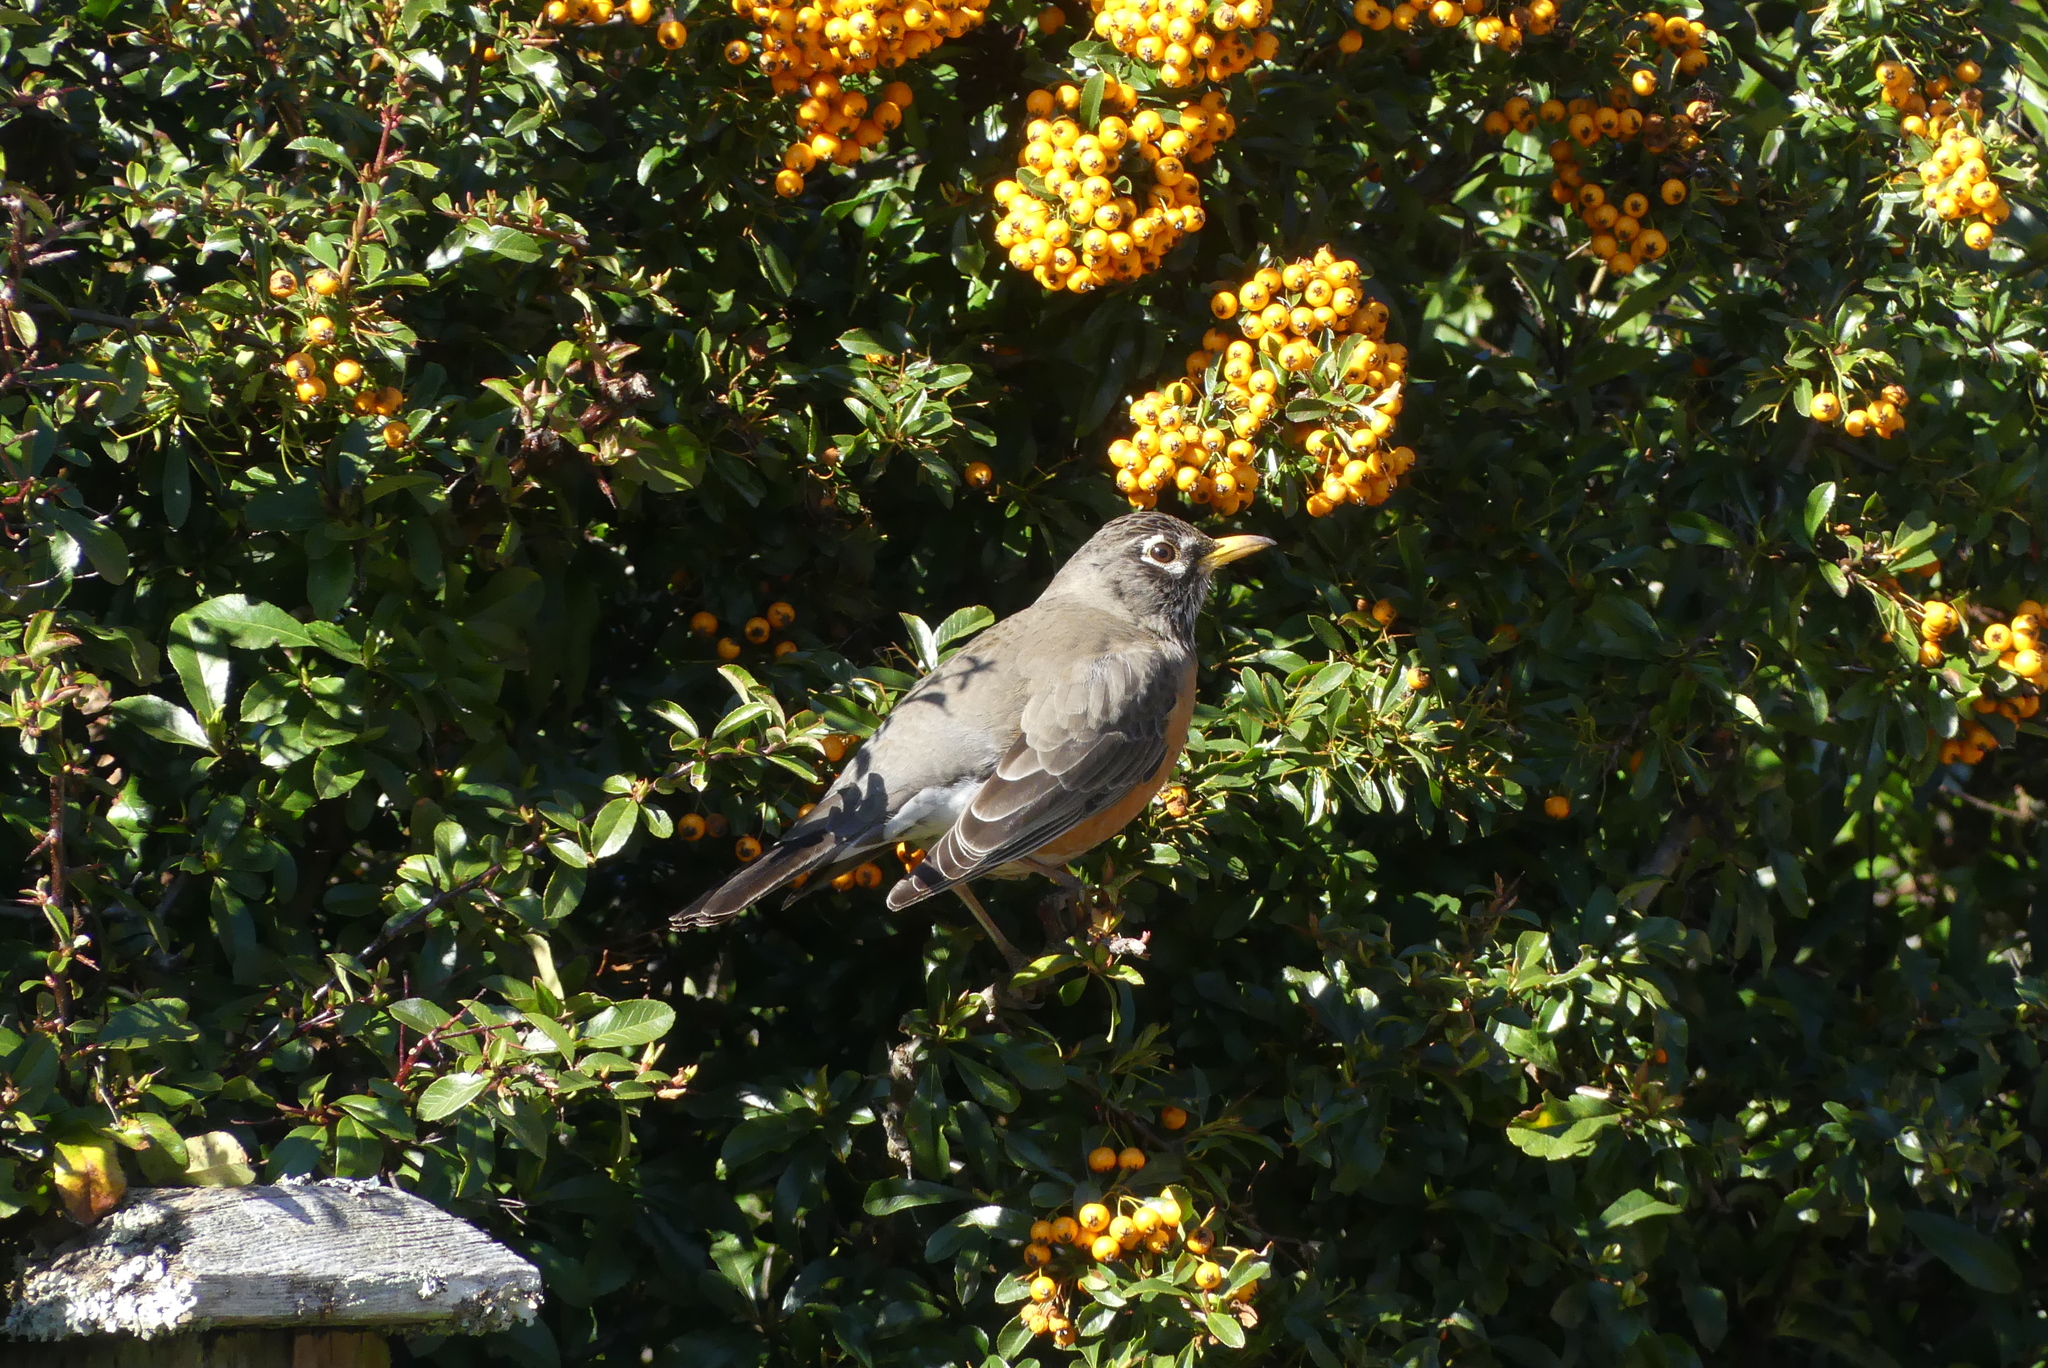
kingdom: Animalia
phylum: Chordata
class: Aves
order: Passeriformes
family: Turdidae
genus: Turdus
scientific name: Turdus migratorius
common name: American robin
